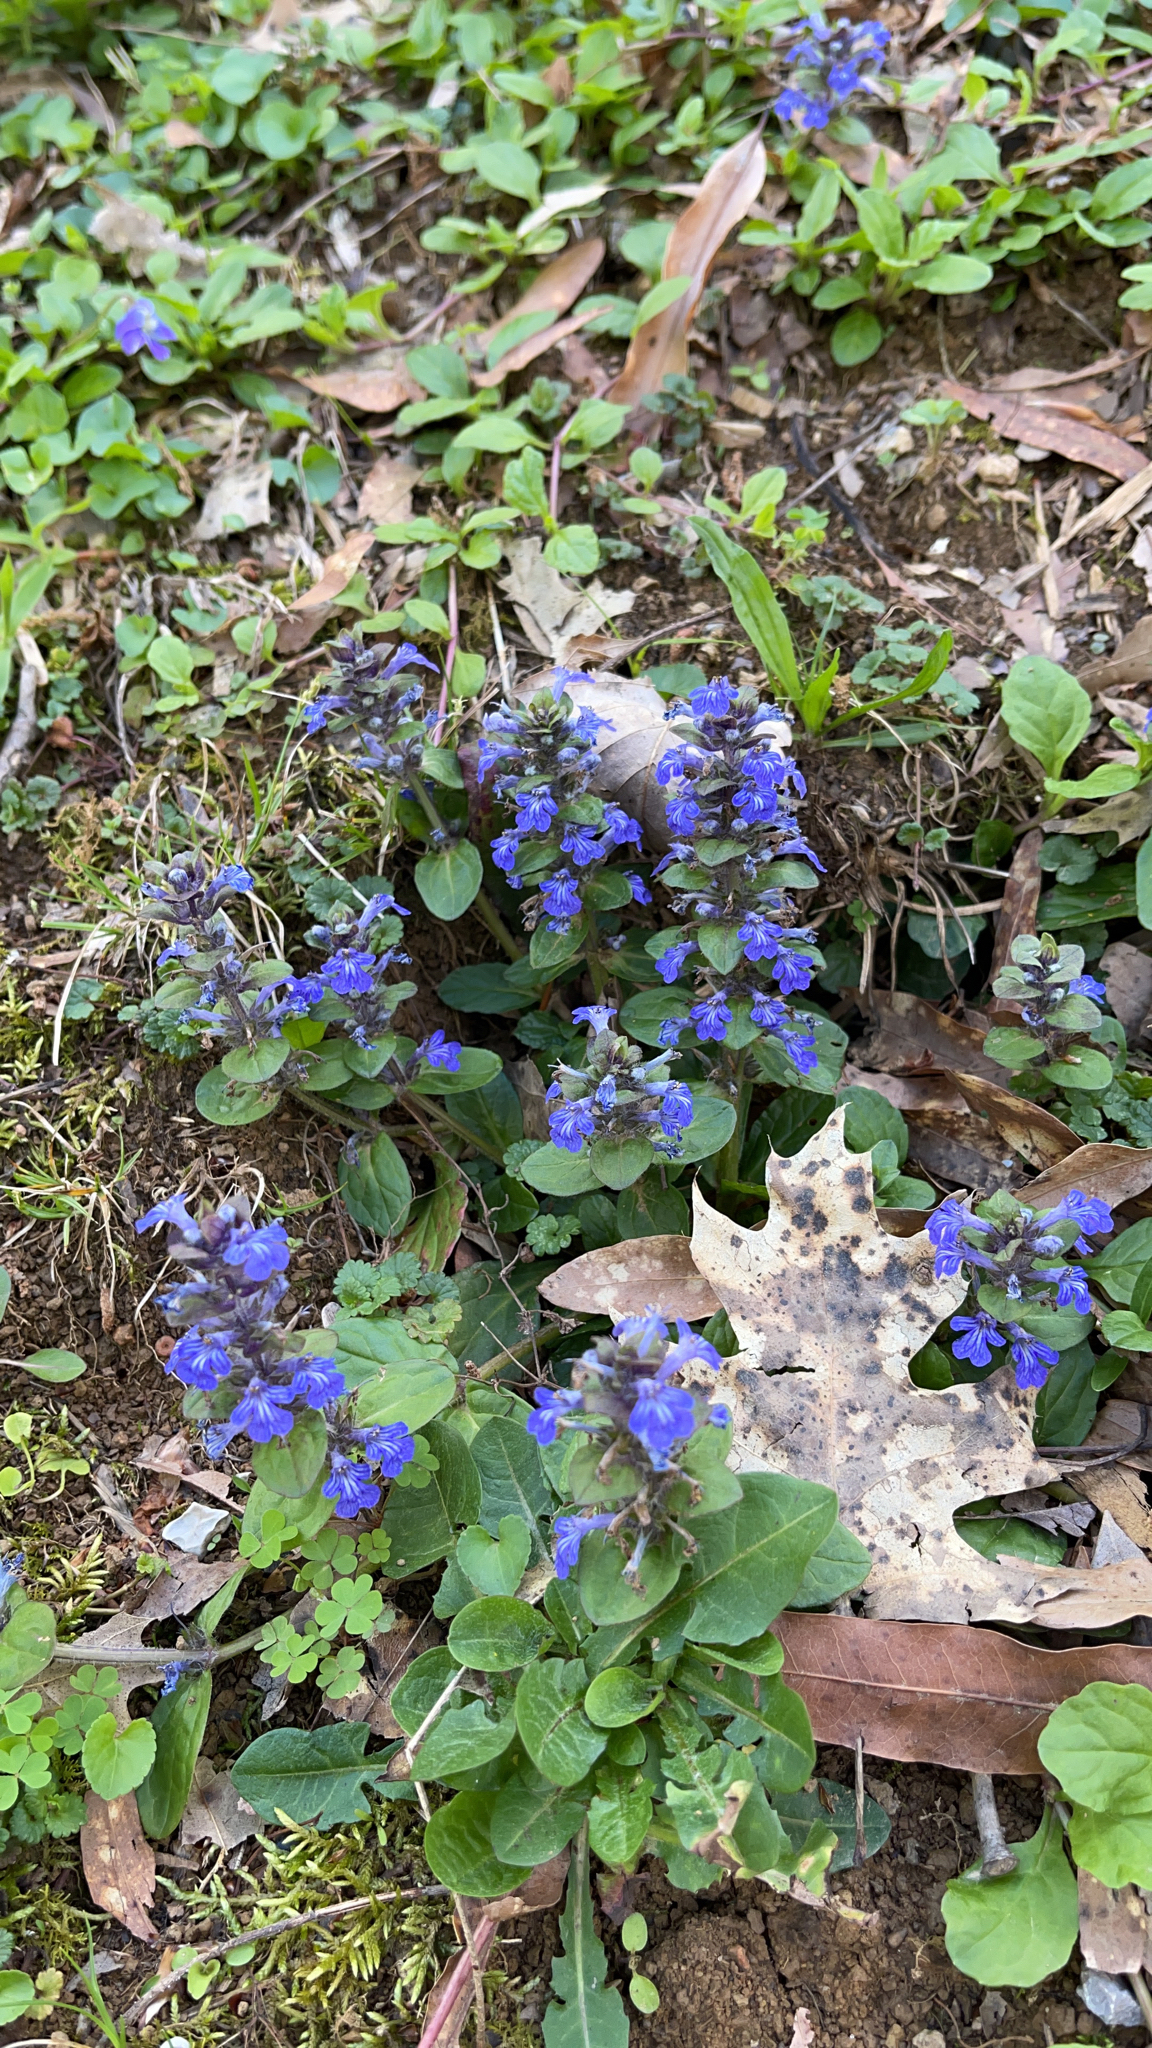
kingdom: Plantae
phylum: Tracheophyta
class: Magnoliopsida
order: Lamiales
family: Lamiaceae
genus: Ajuga
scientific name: Ajuga reptans
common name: Bugle
